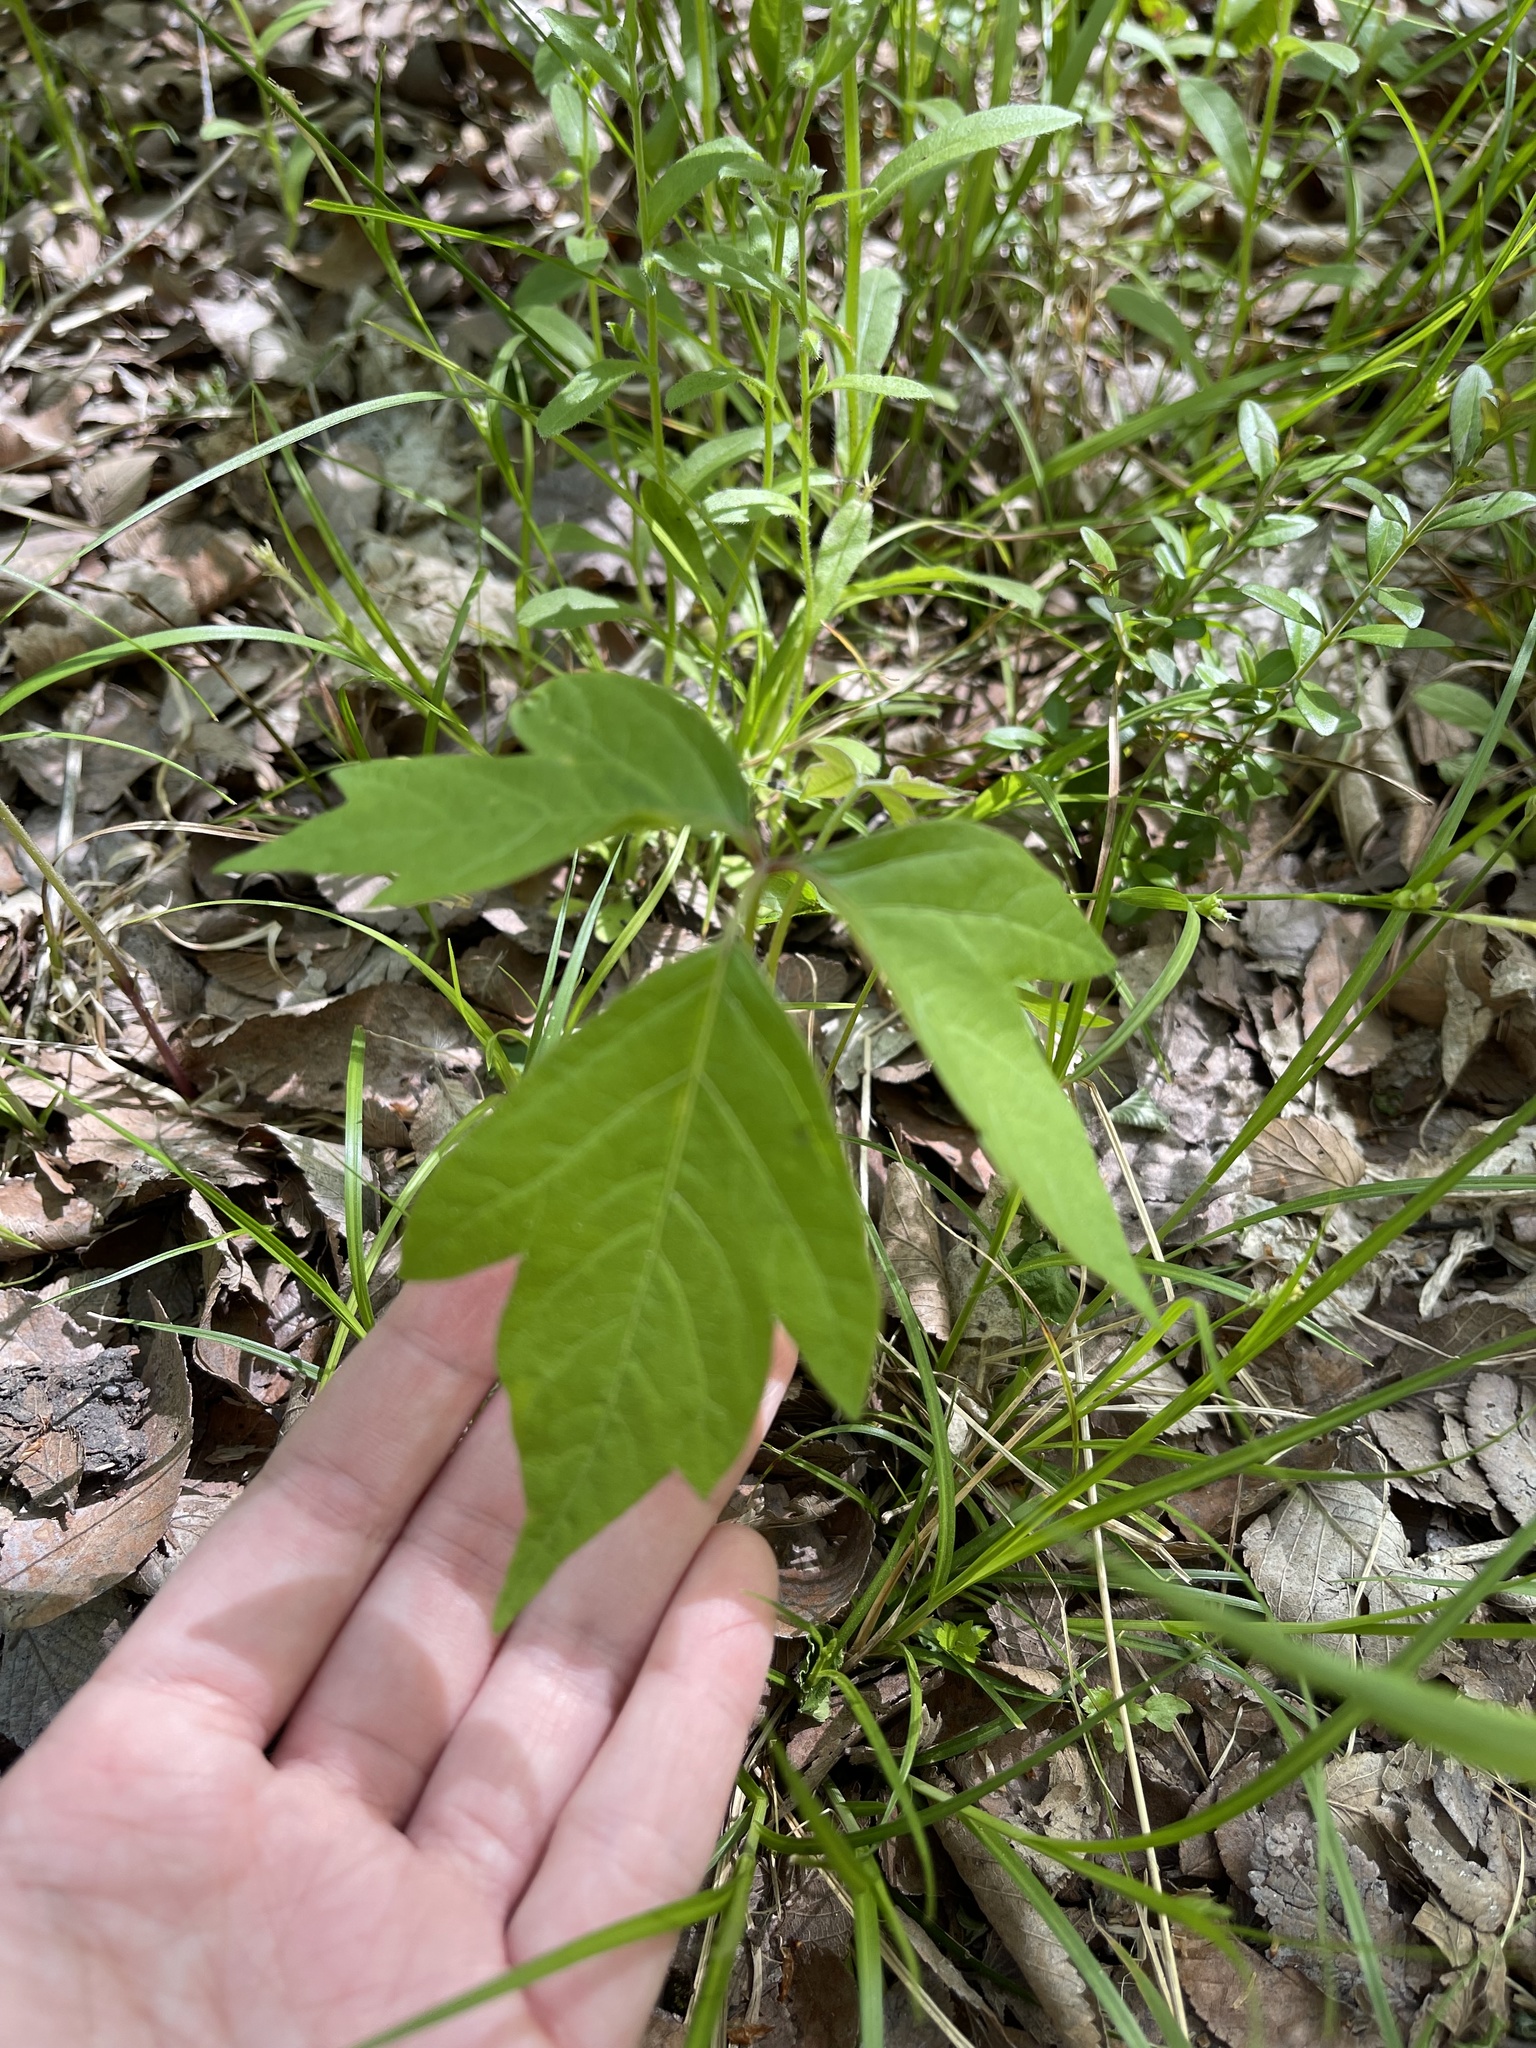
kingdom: Plantae
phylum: Tracheophyta
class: Magnoliopsida
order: Sapindales
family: Anacardiaceae
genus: Toxicodendron
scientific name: Toxicodendron radicans
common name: Poison ivy
